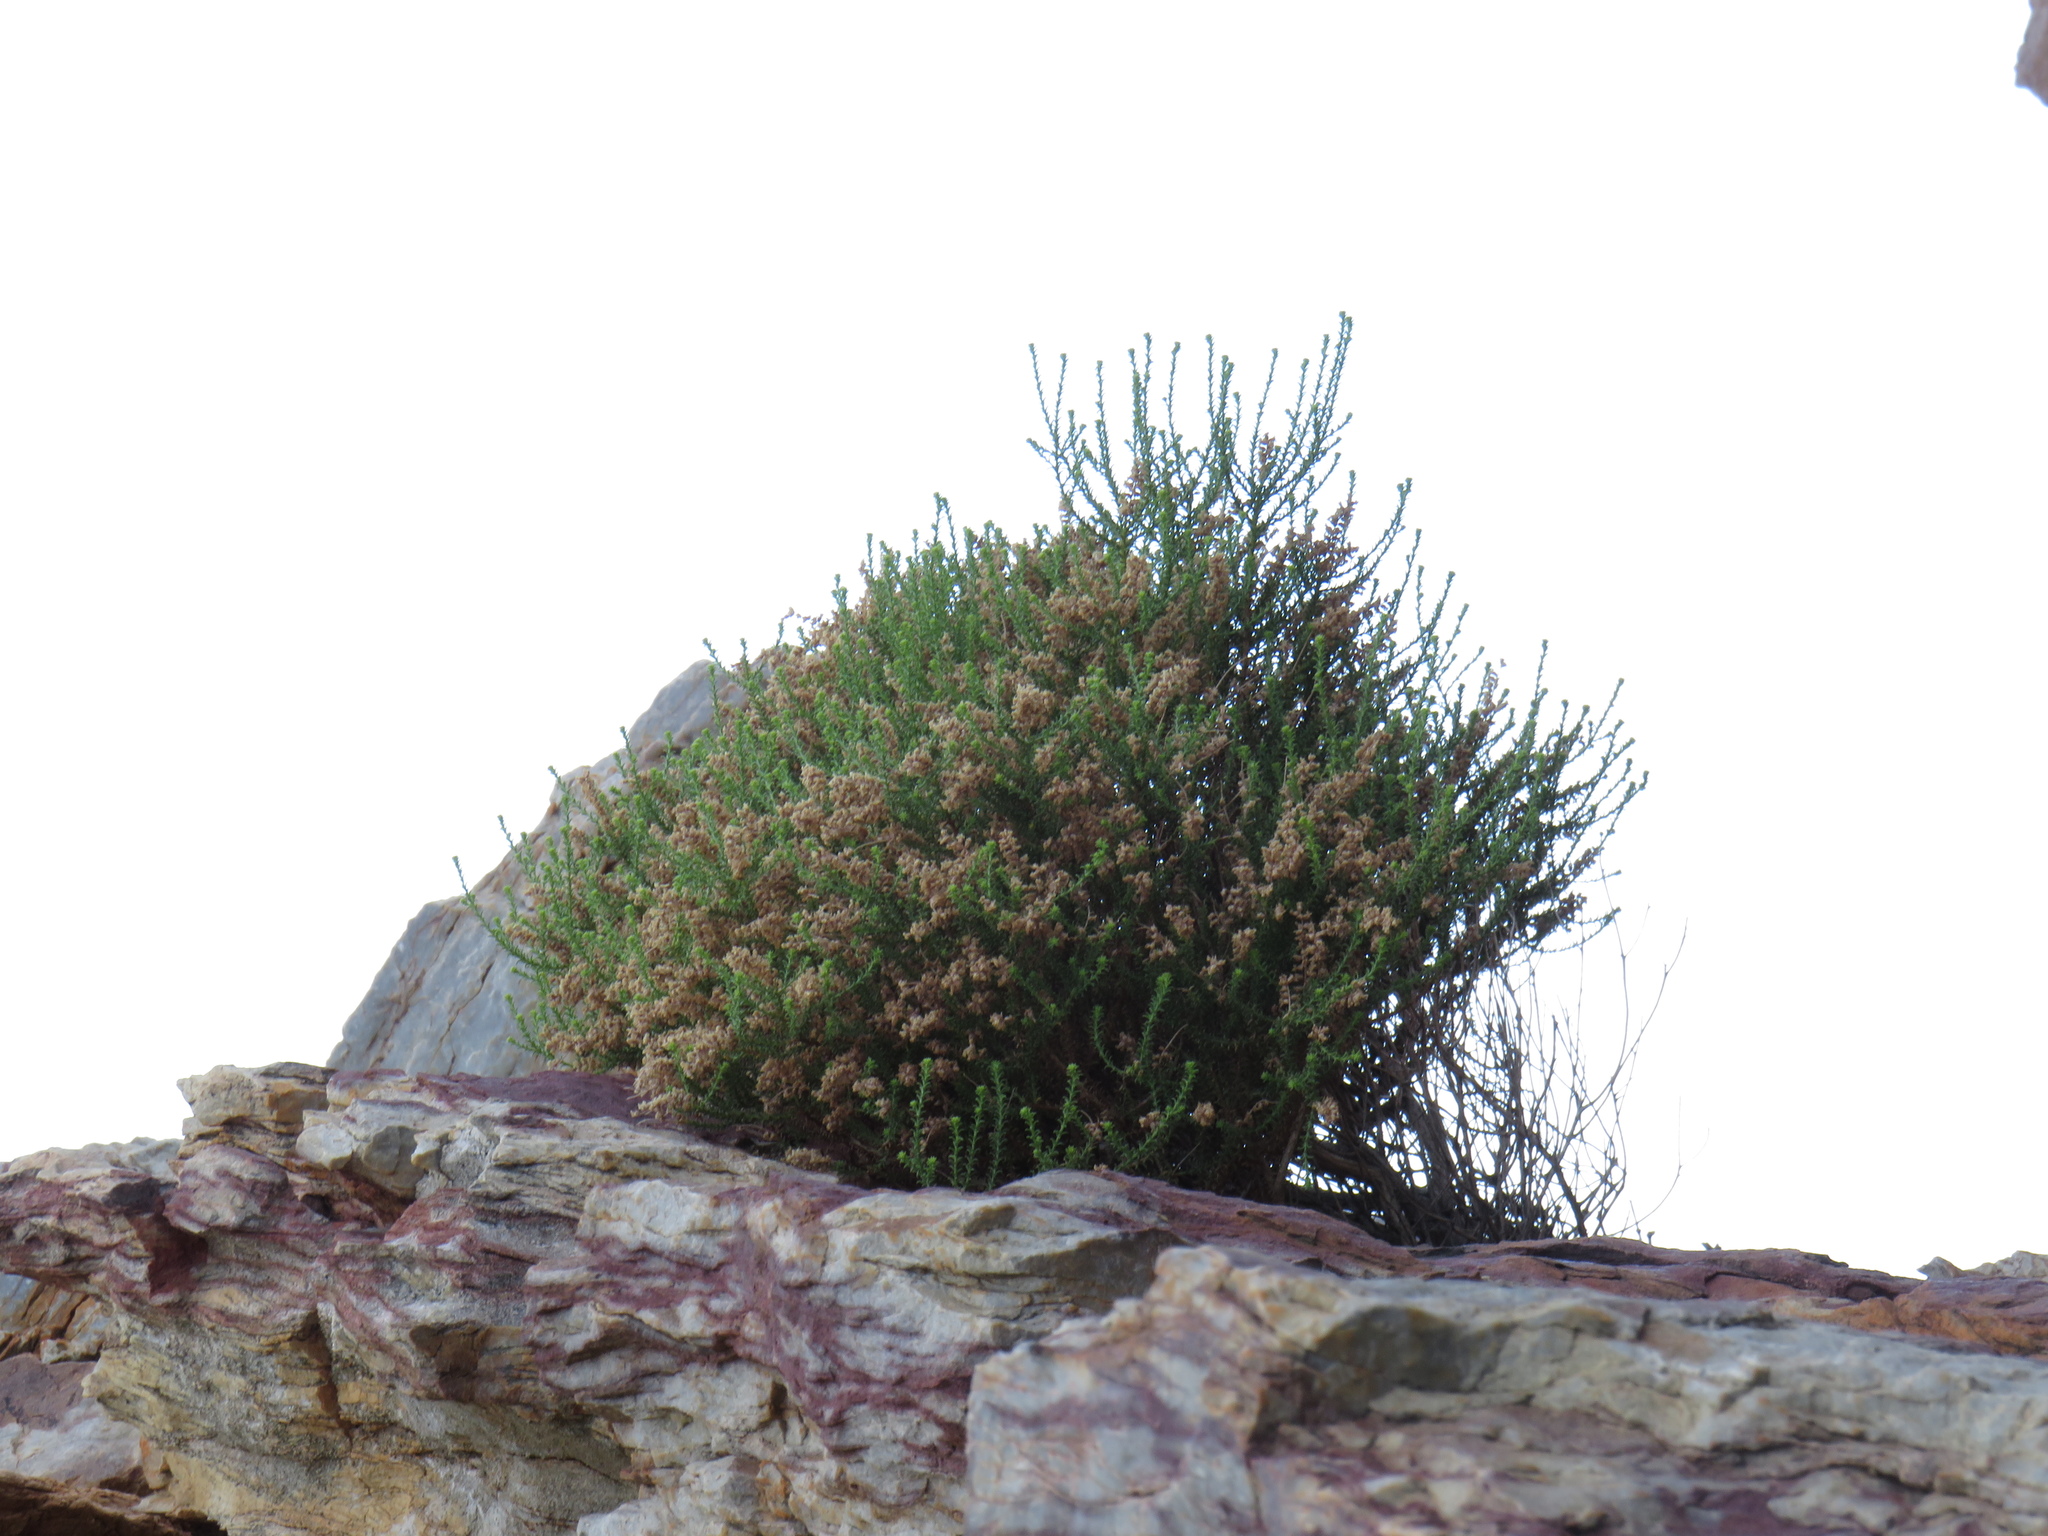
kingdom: Plantae
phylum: Tracheophyta
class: Magnoliopsida
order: Lamiales
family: Scrophulariaceae
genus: Selago
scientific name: Selago triquetra
